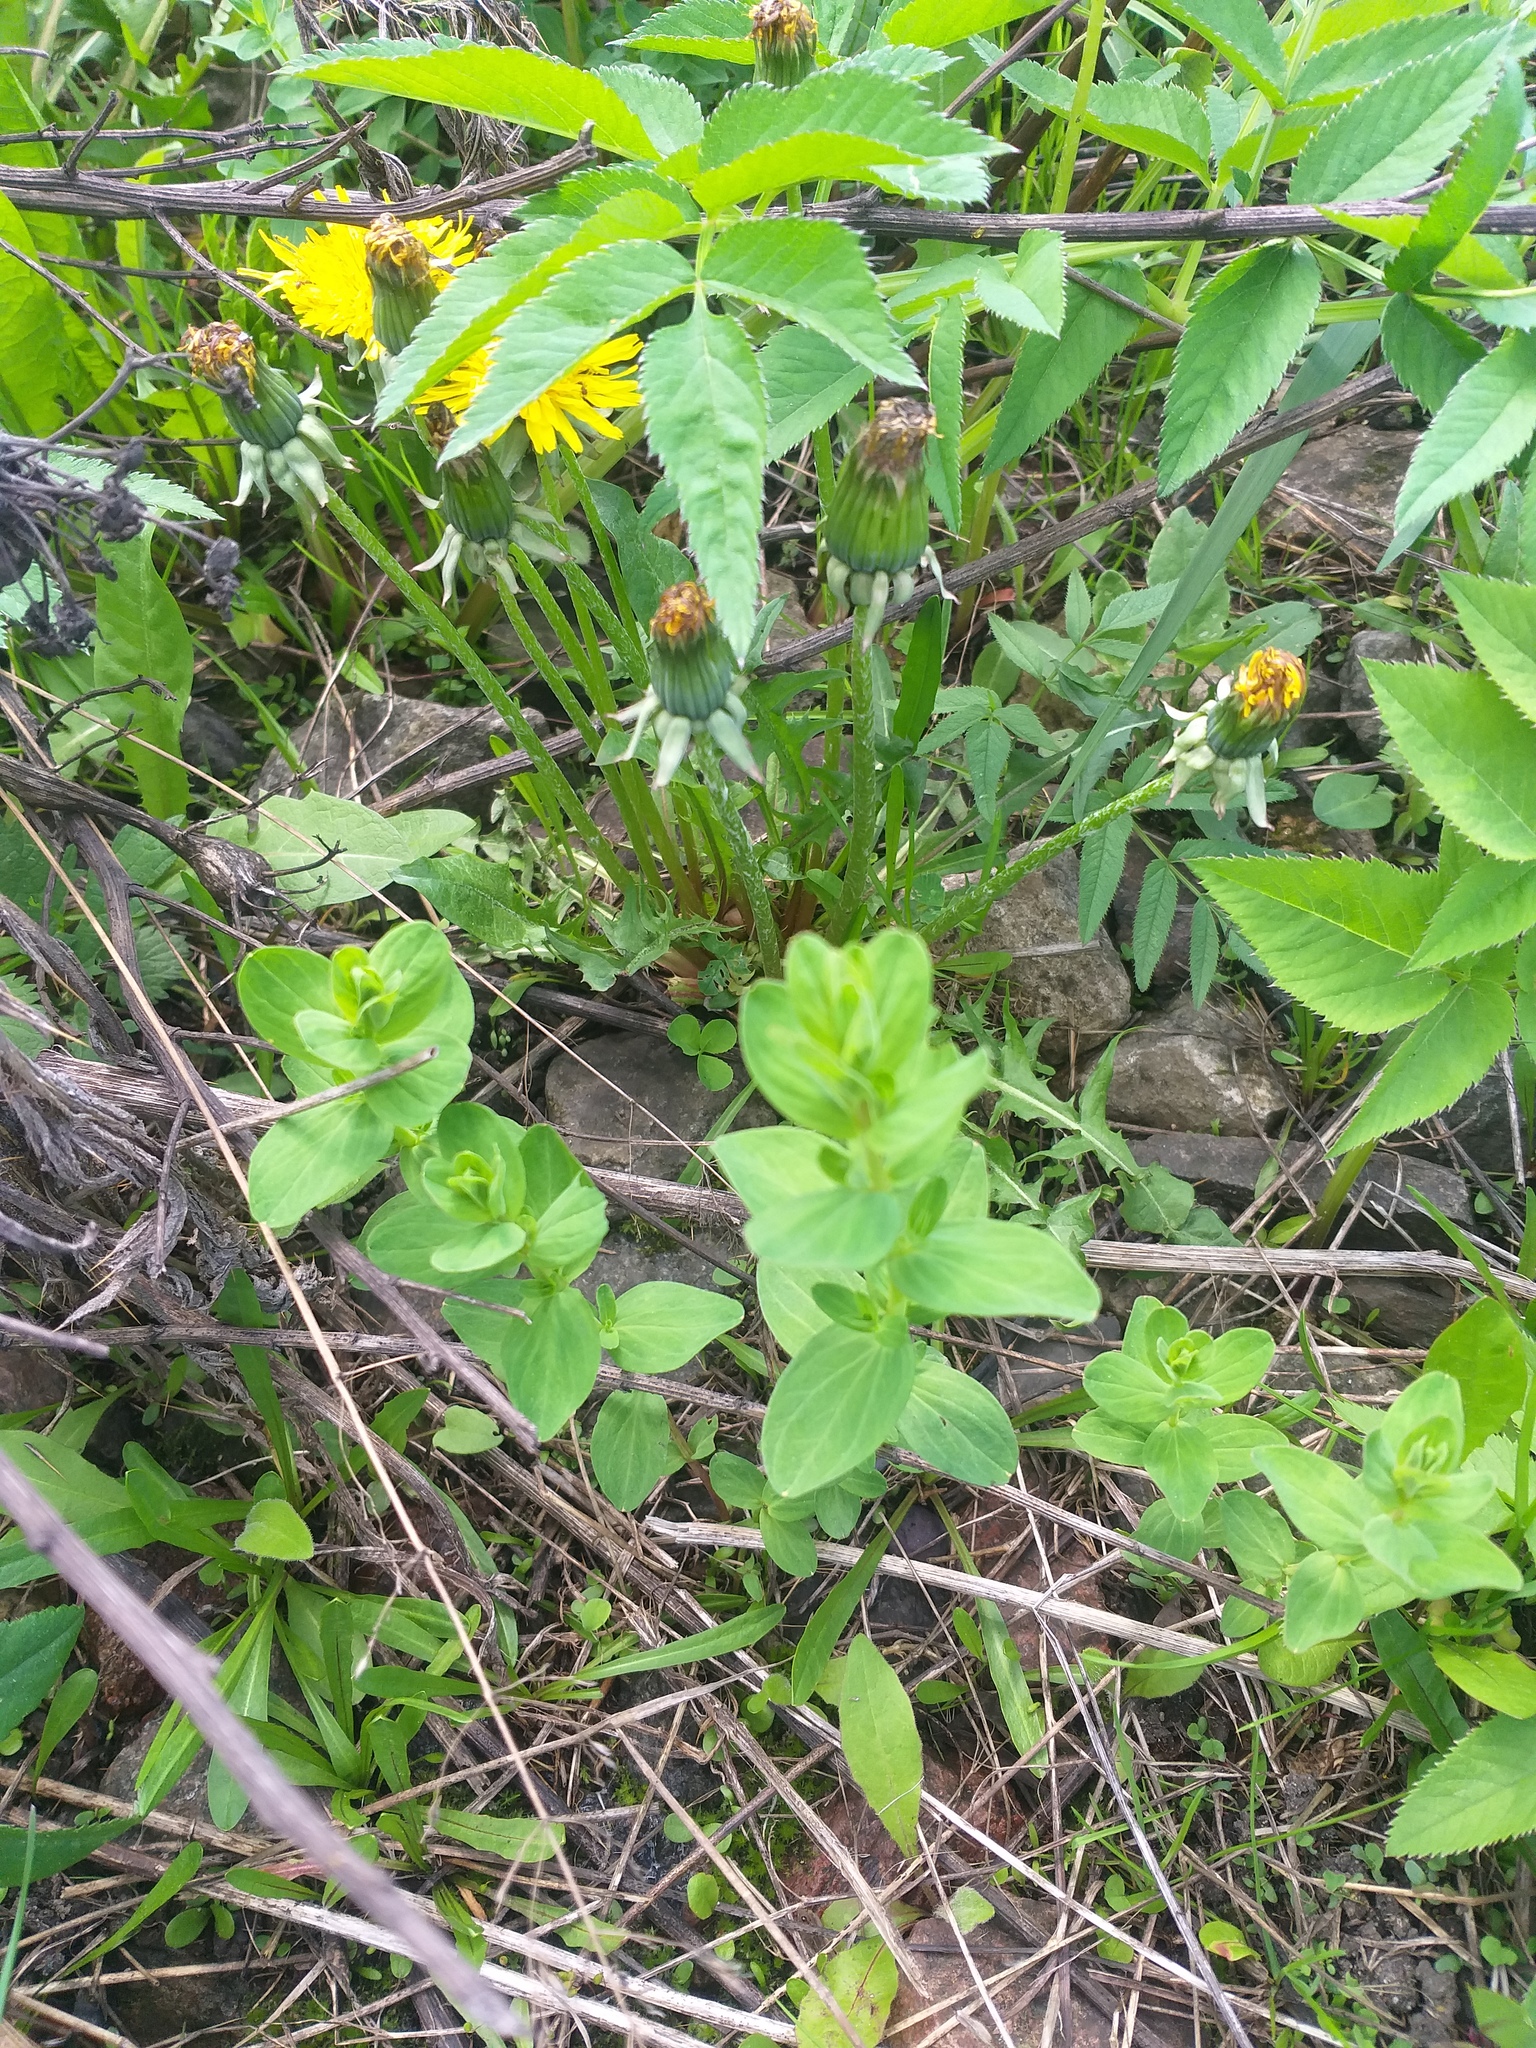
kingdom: Plantae
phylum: Tracheophyta
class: Magnoliopsida
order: Malpighiales
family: Hypericaceae
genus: Hypericum
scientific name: Hypericum maculatum
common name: Imperforate st. john's-wort
